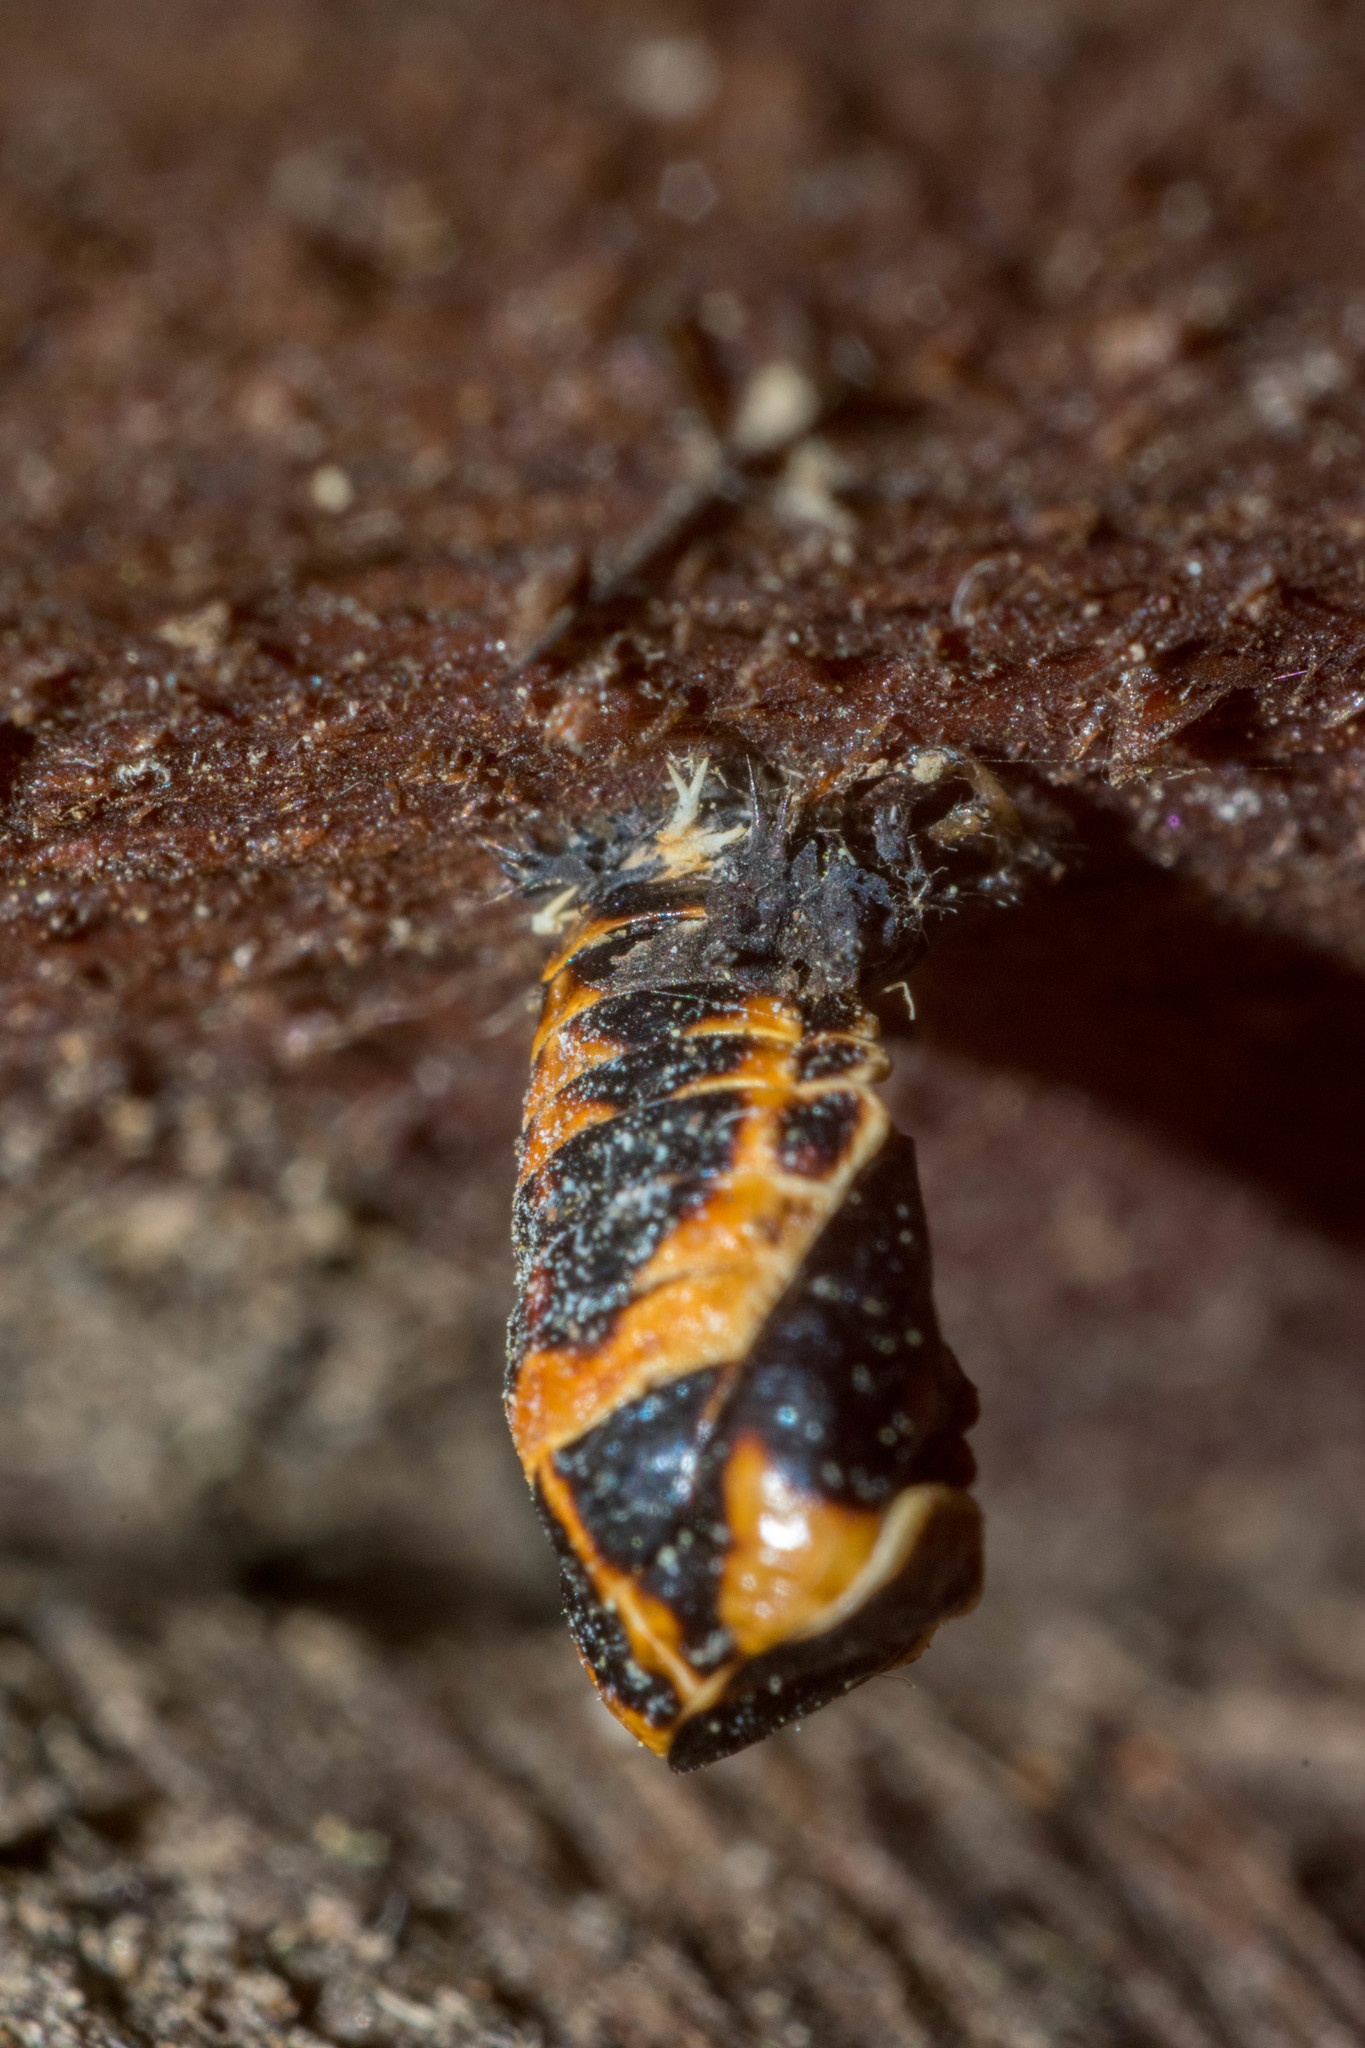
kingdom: Animalia
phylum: Arthropoda
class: Insecta
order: Coleoptera
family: Coccinellidae
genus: Harmonia
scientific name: Harmonia axyridis
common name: Harlequin ladybird
